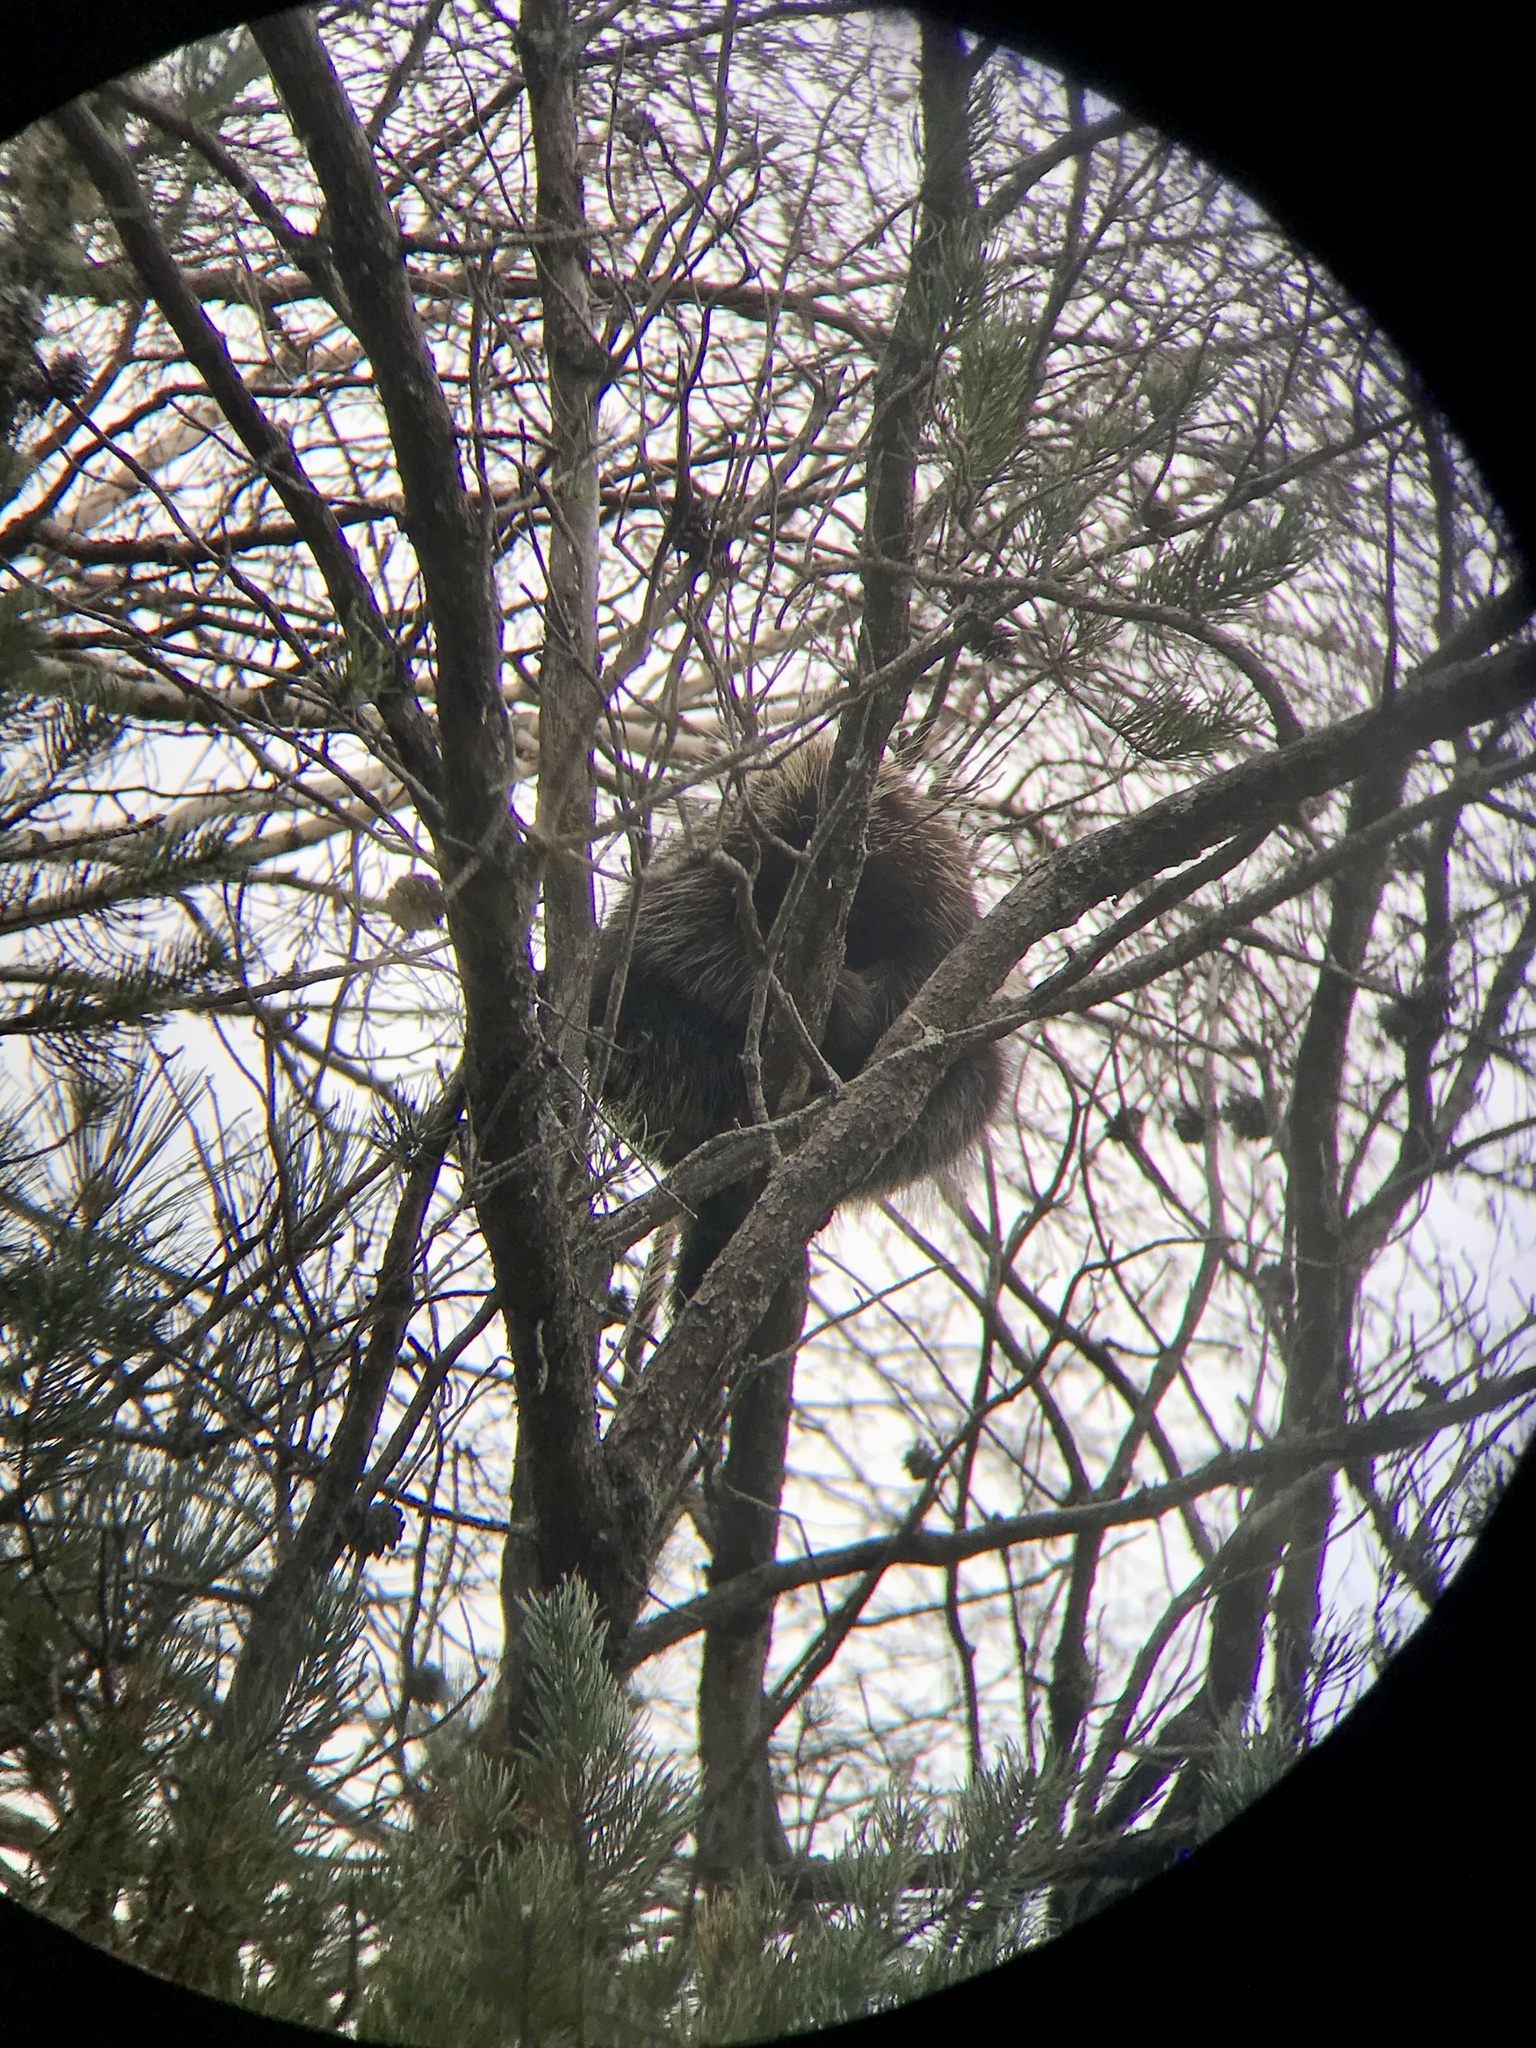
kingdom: Animalia
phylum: Chordata
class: Mammalia
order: Rodentia
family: Erethizontidae
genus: Erethizon
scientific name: Erethizon dorsatus
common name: North american porcupine
